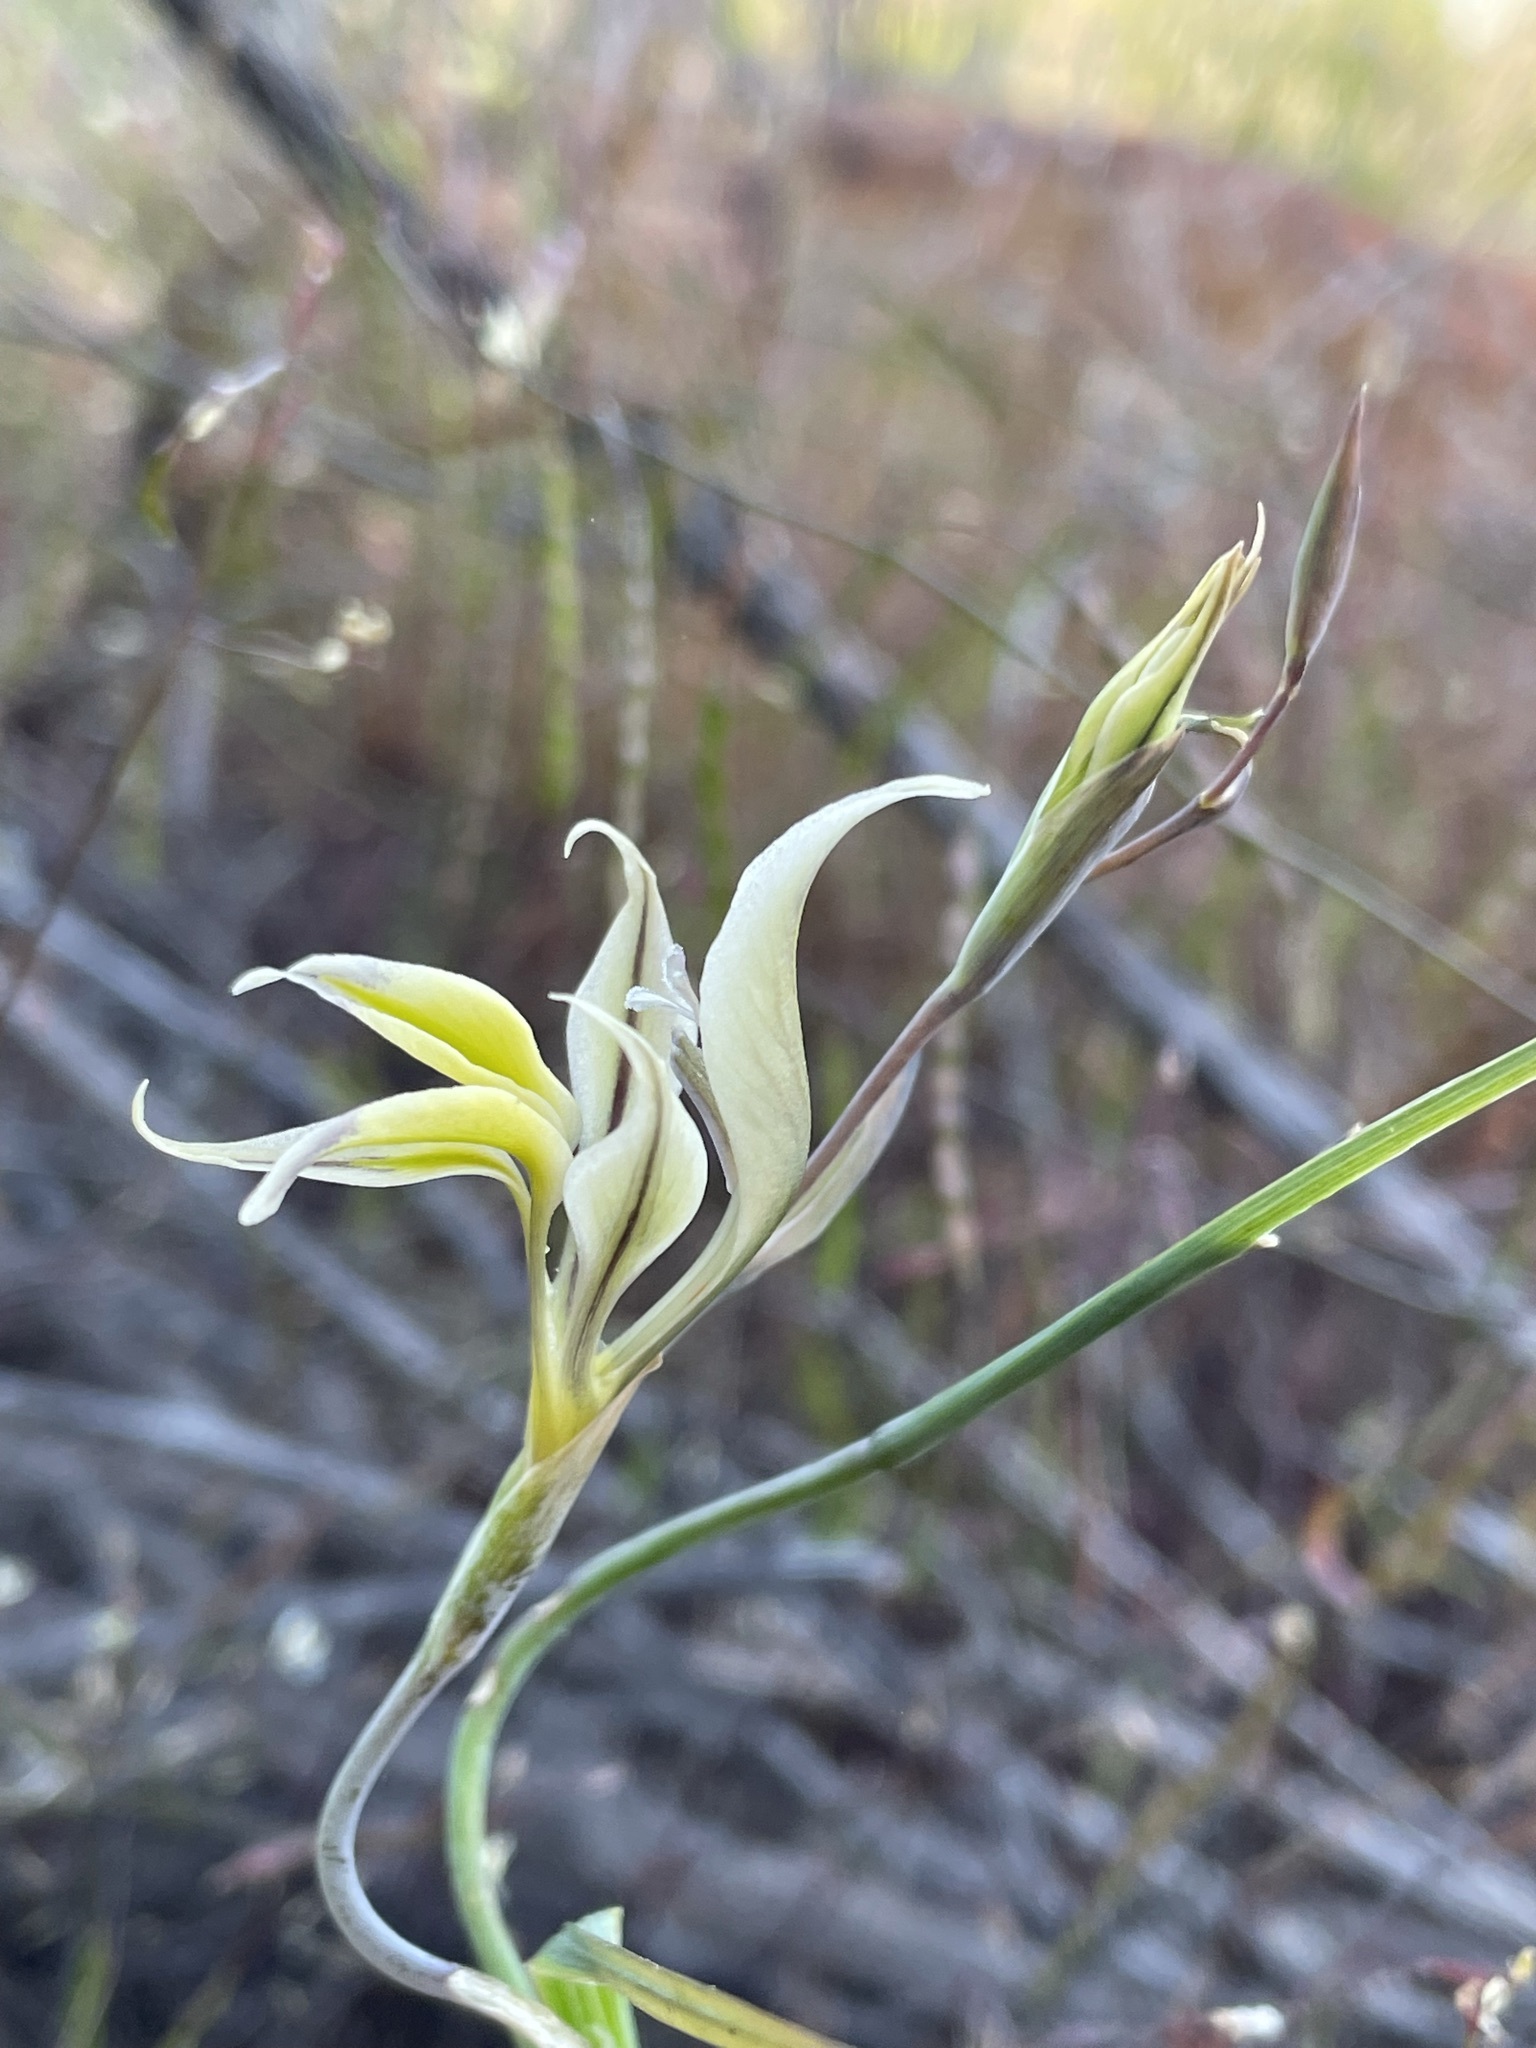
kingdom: Plantae
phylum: Tracheophyta
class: Liliopsida
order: Asparagales
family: Iridaceae
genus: Gladiolus
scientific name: Gladiolus permeabilis
